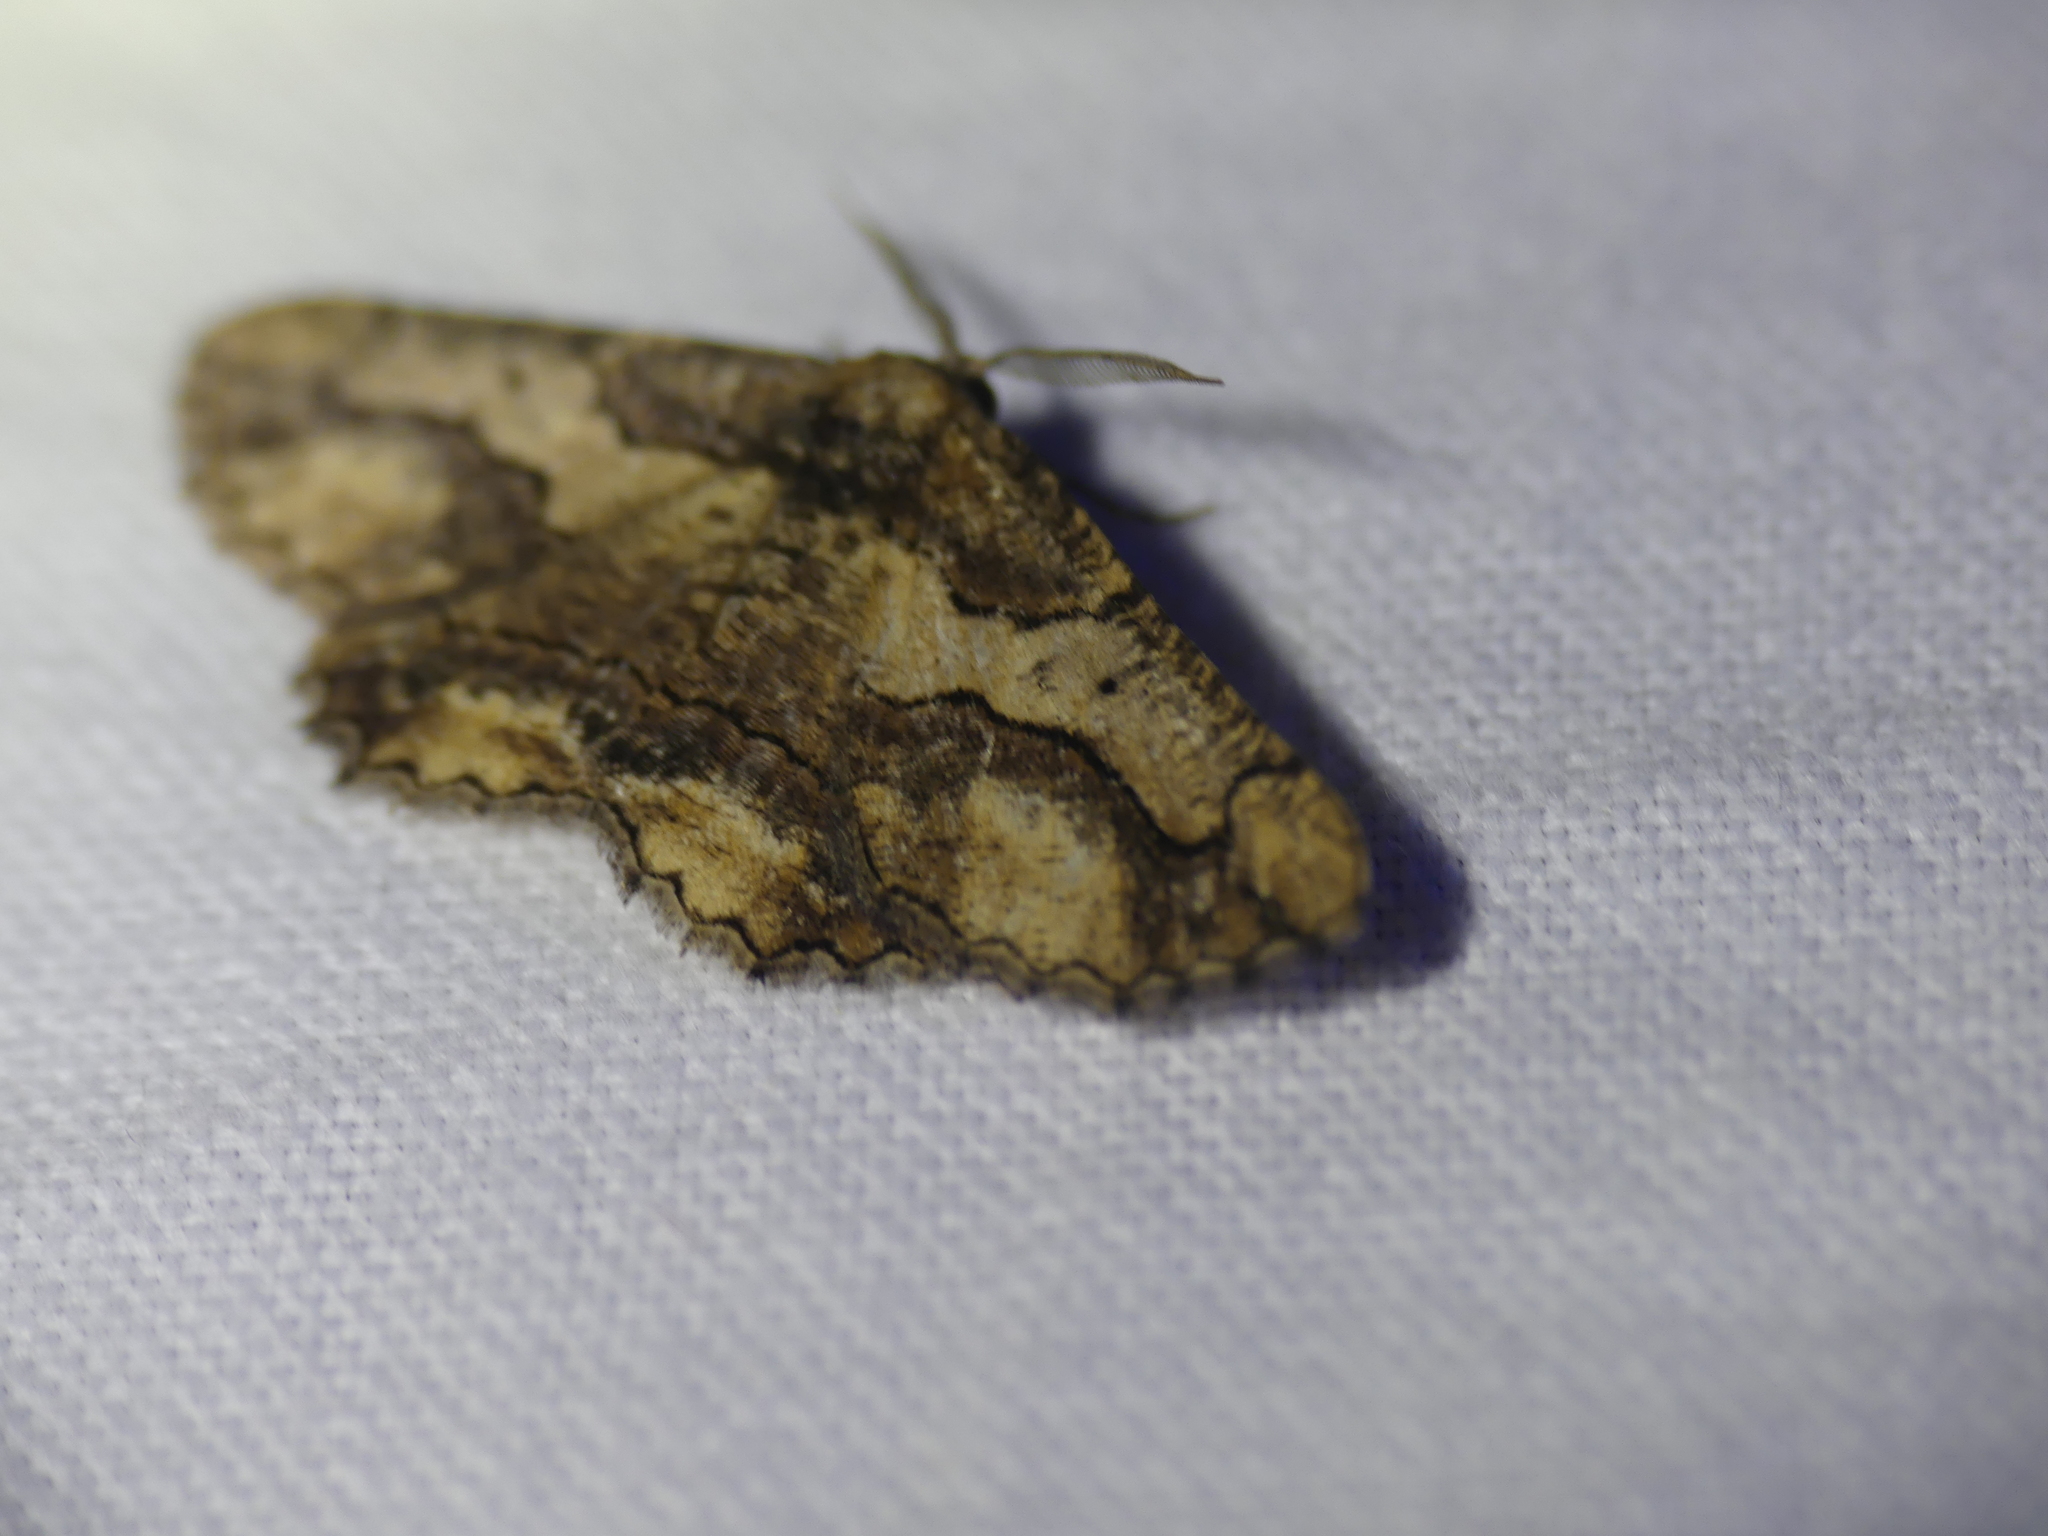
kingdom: Animalia
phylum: Arthropoda
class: Insecta
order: Lepidoptera
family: Geometridae
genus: Menophra
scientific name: Menophra japygiaria
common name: Brassy waved umber
